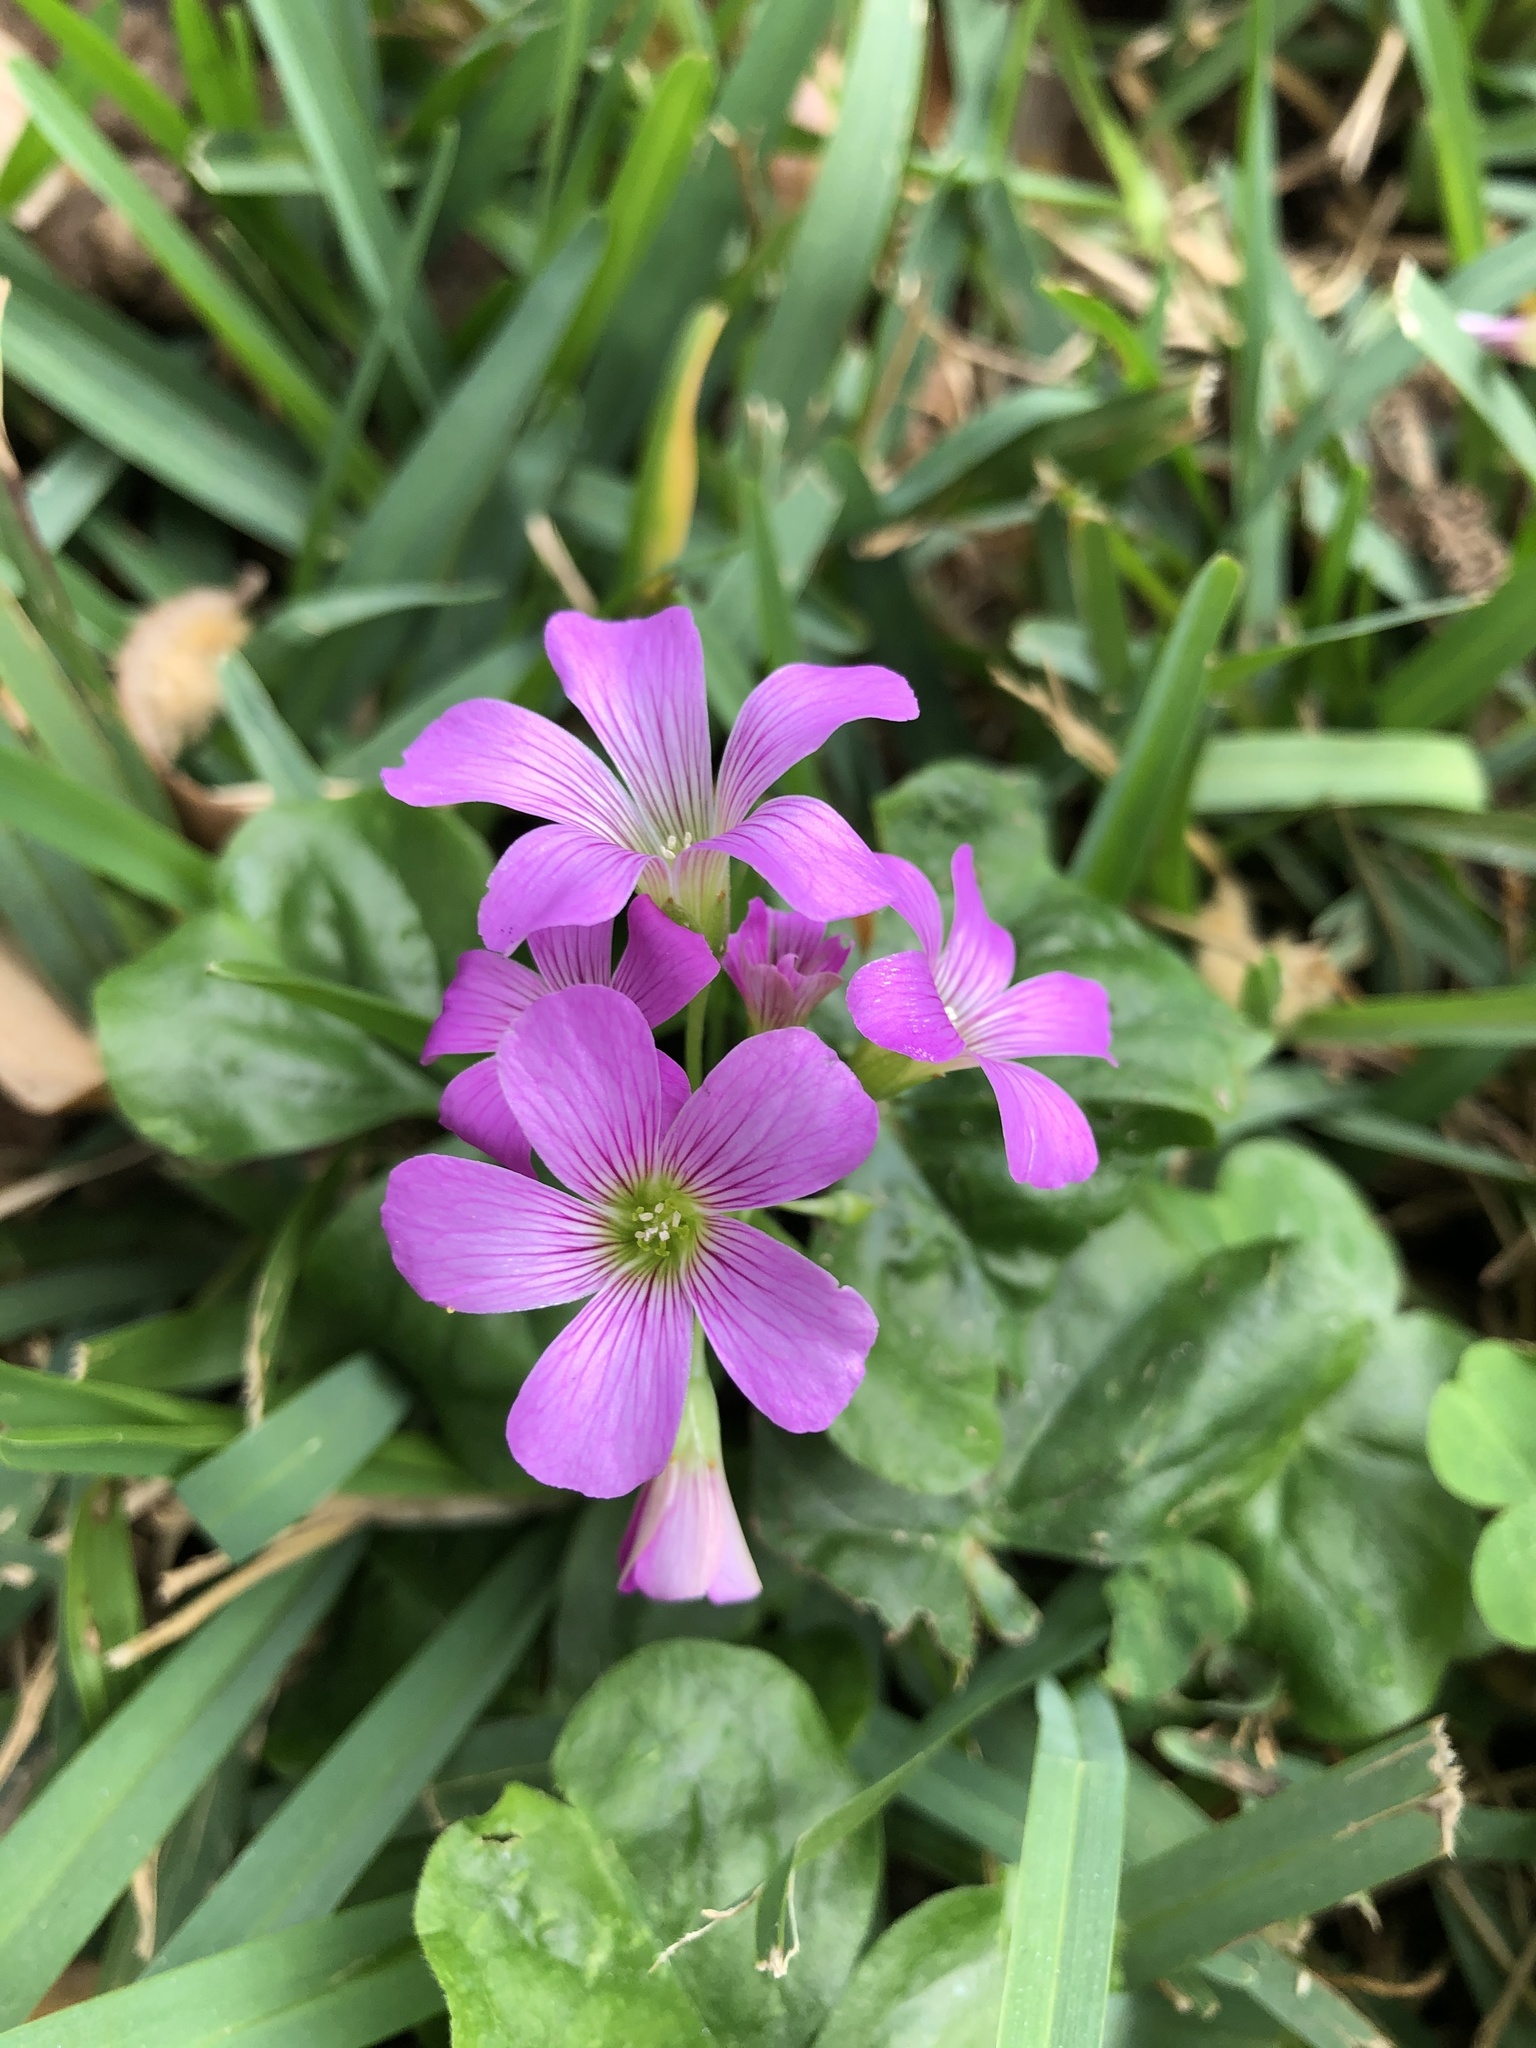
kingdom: Plantae
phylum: Tracheophyta
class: Magnoliopsida
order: Oxalidales
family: Oxalidaceae
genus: Oxalis
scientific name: Oxalis debilis
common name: Large-flowered pink-sorrel
